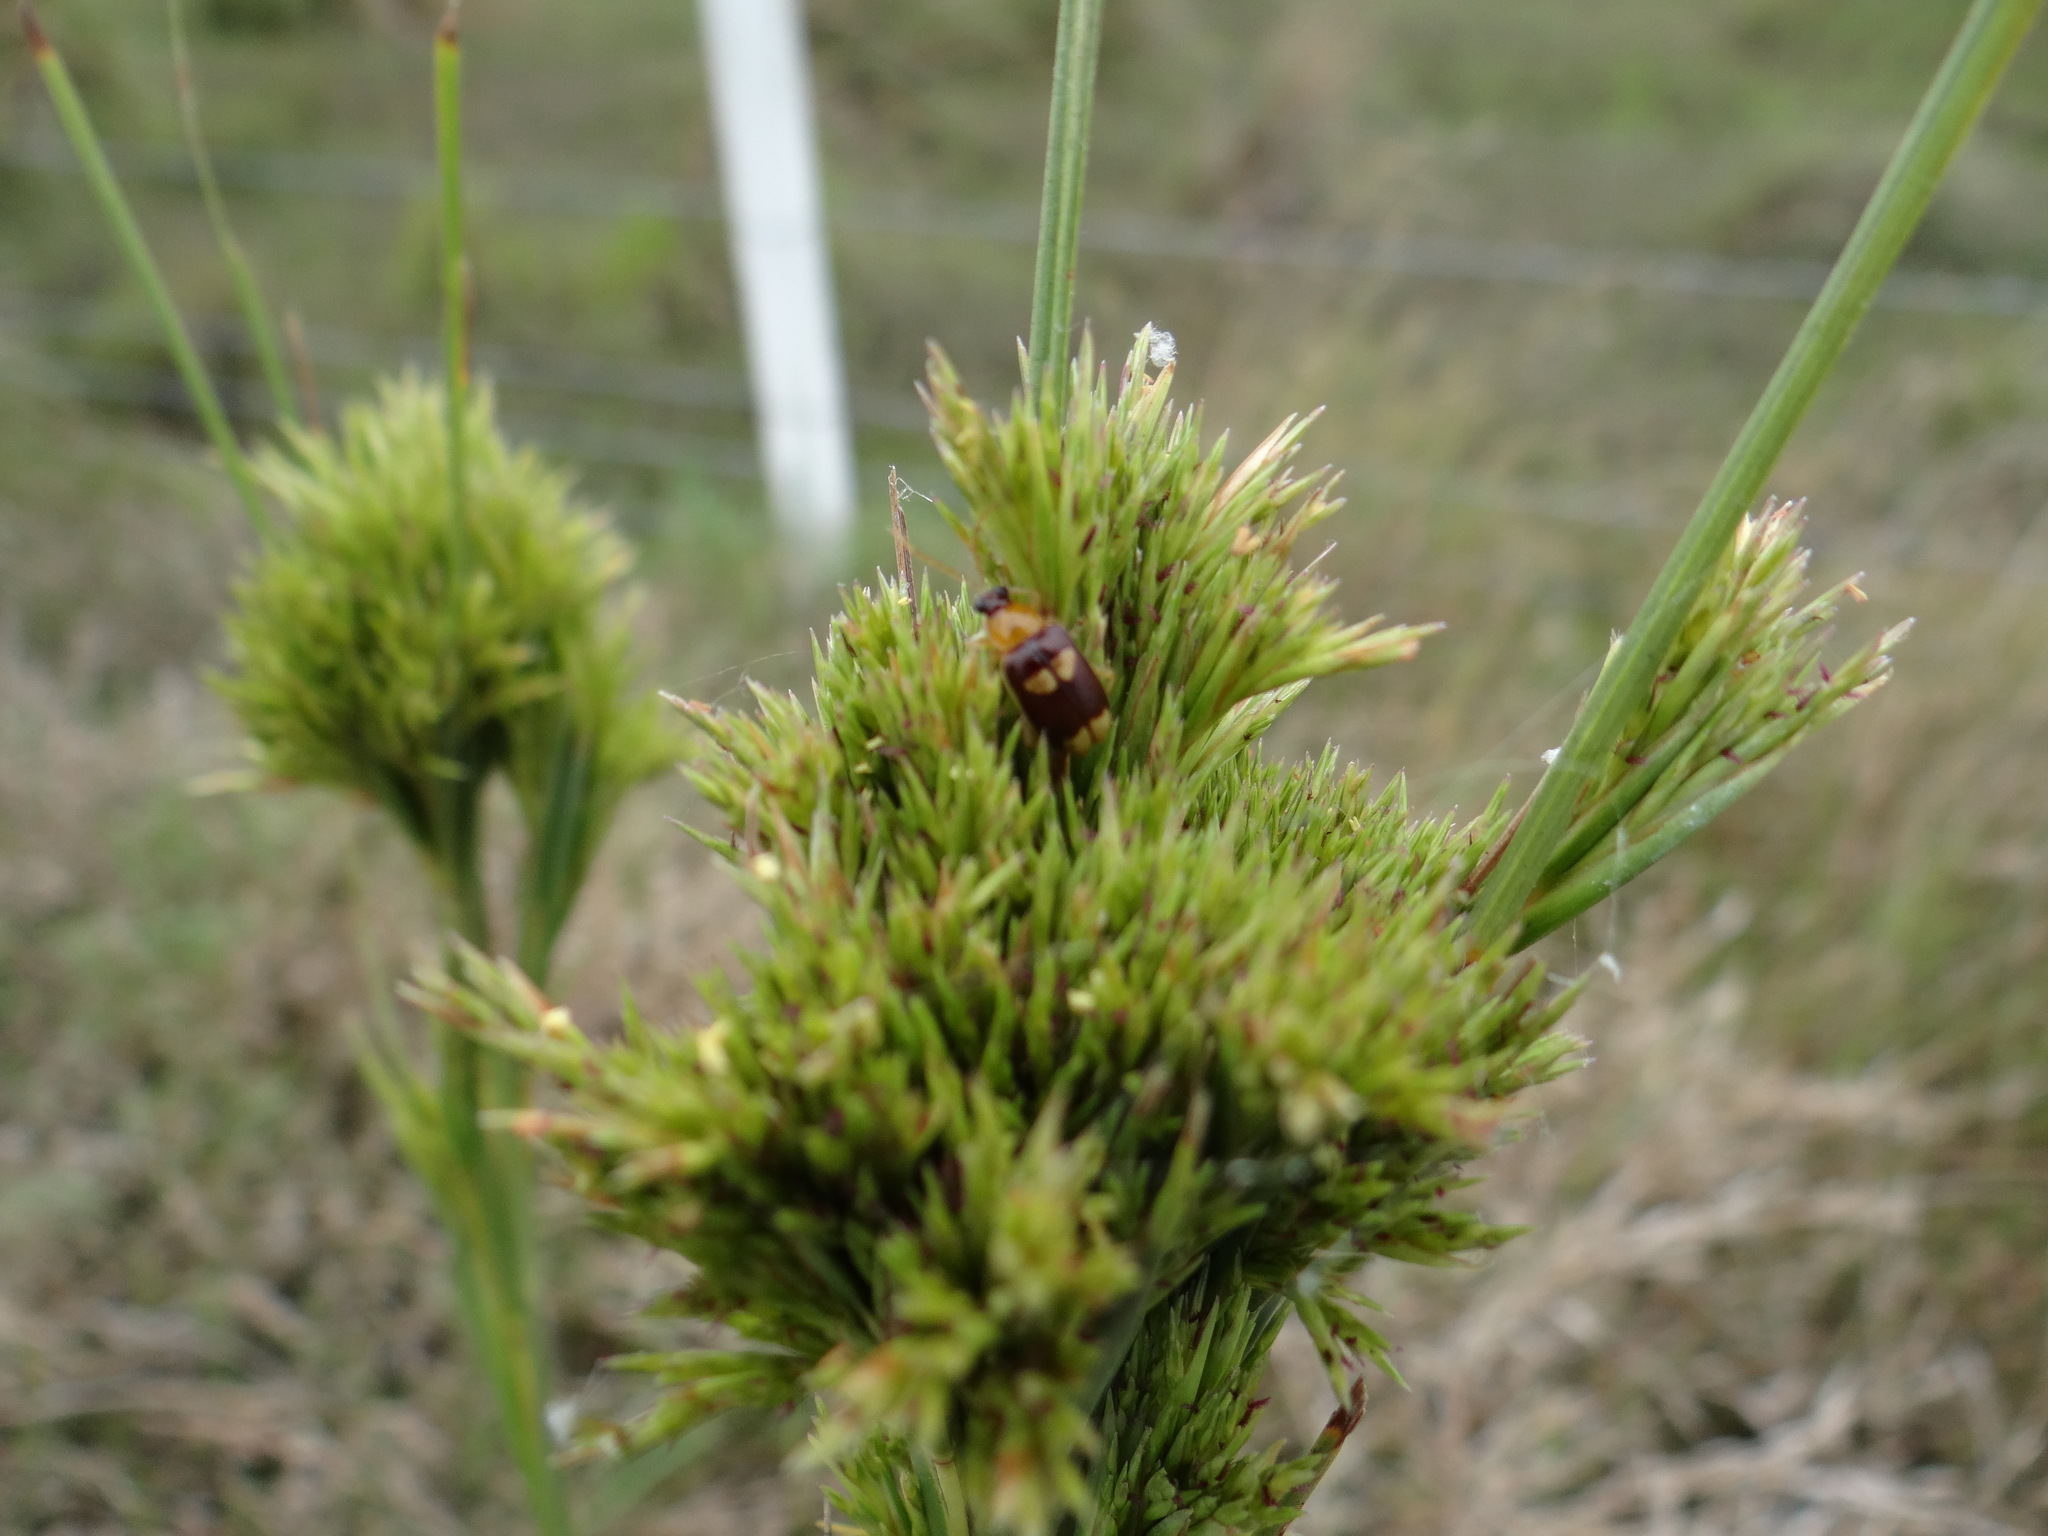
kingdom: Animalia
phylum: Arthropoda
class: Insecta
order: Coleoptera
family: Chrysomelidae
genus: Basiprionota
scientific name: Basiprionota sinuata
